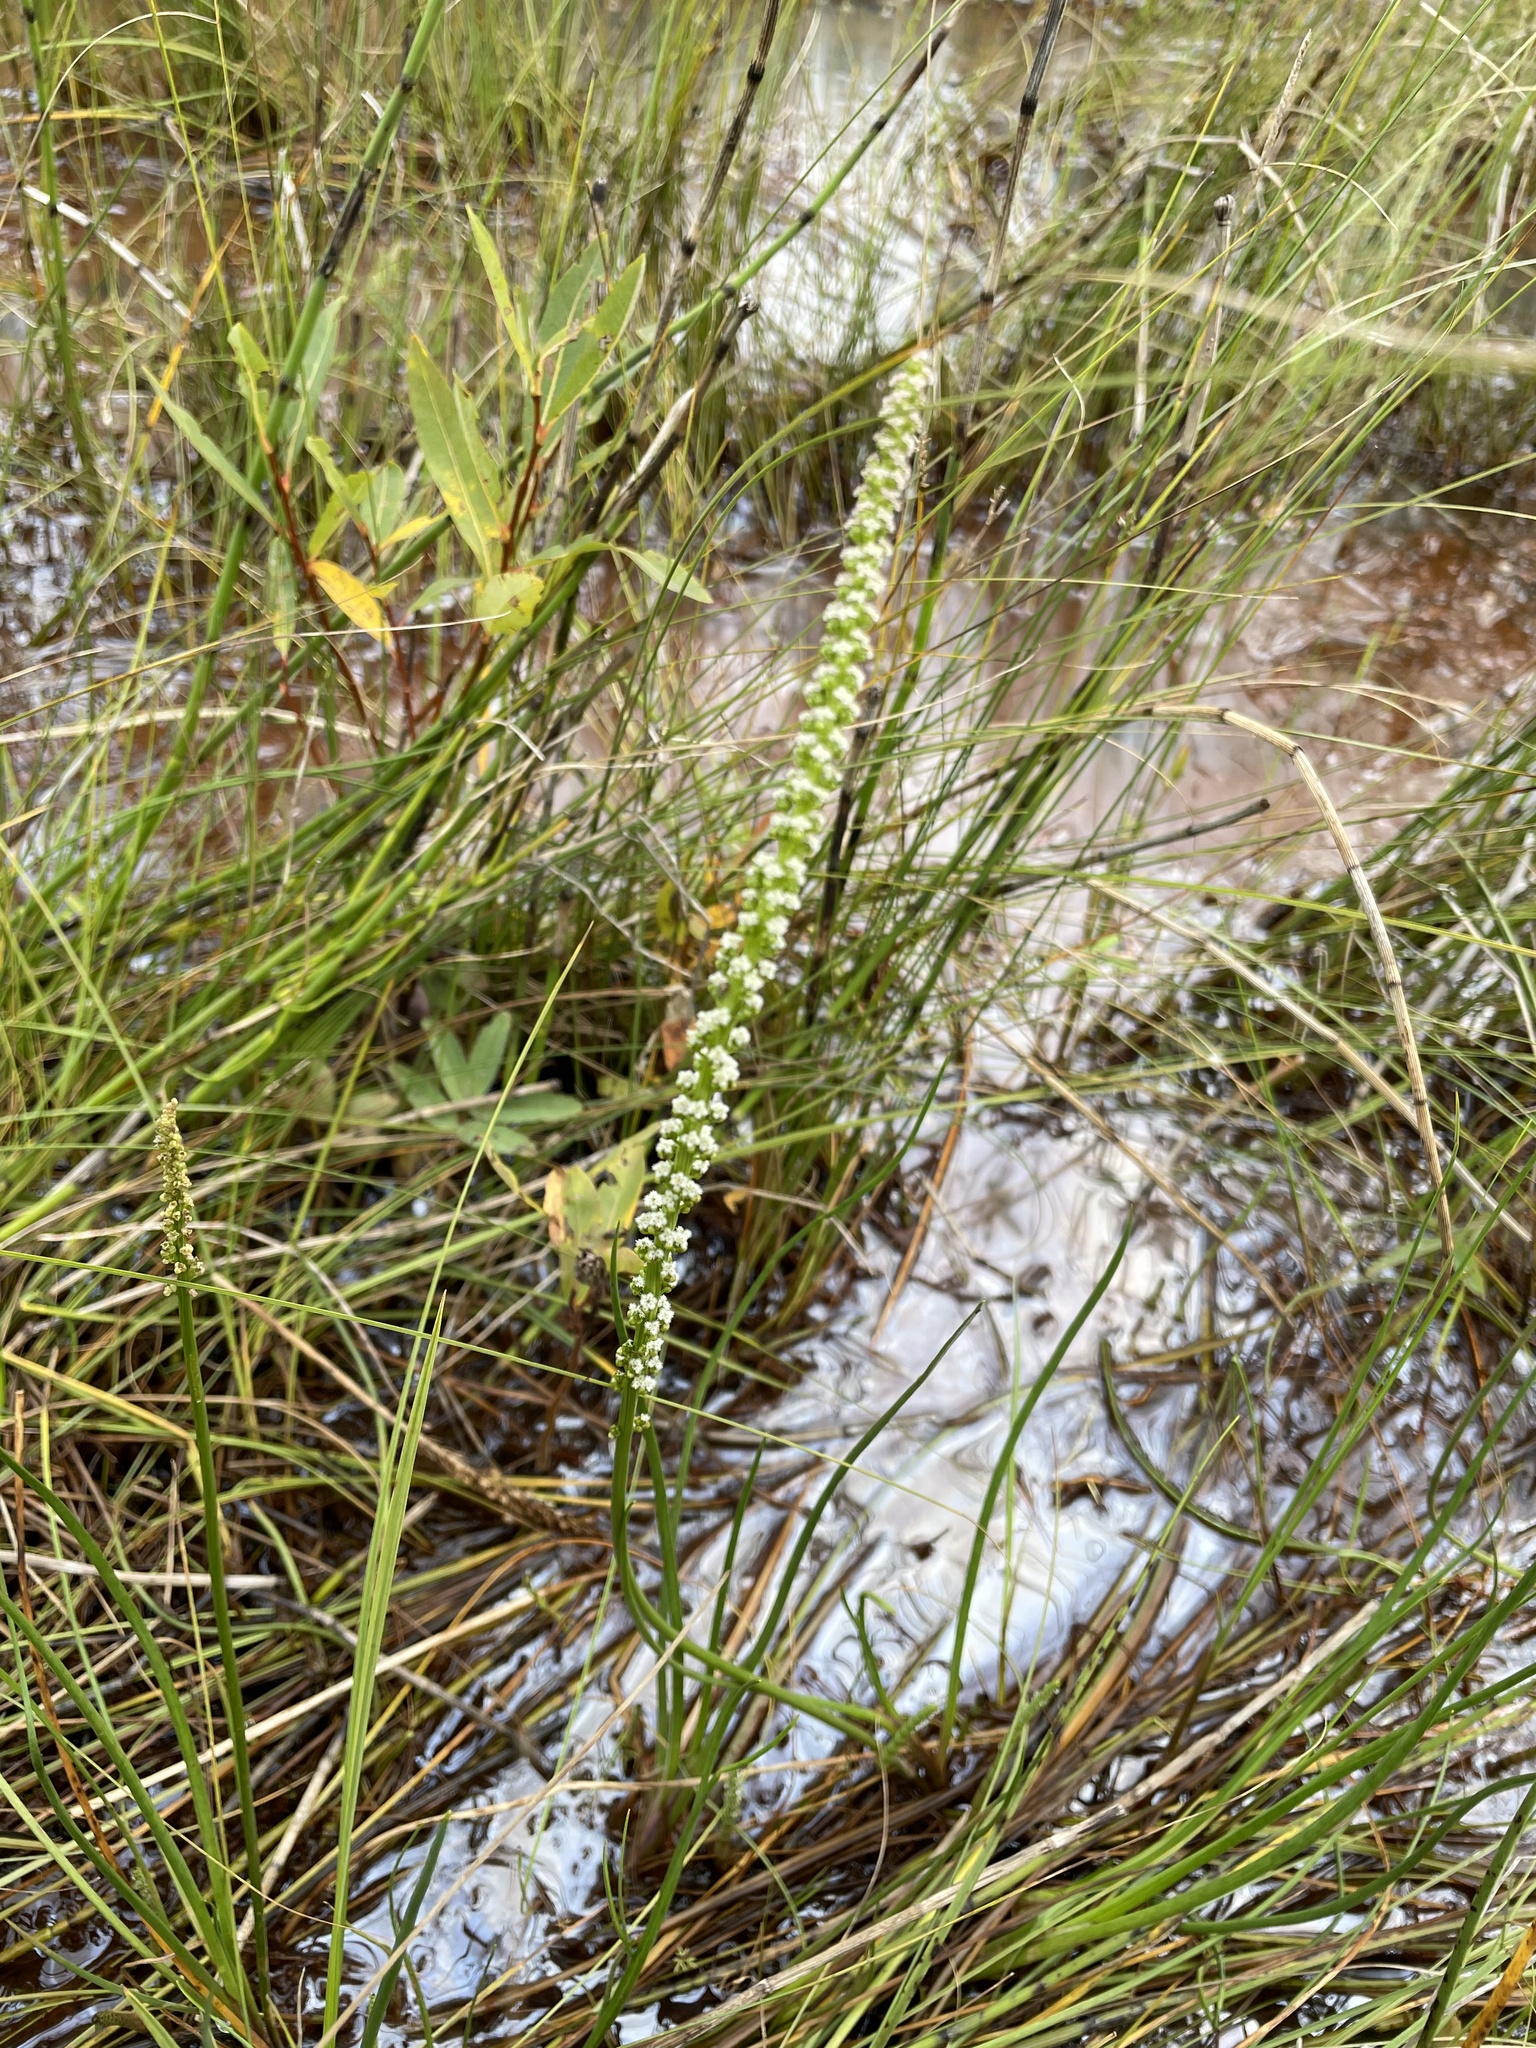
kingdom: Plantae
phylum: Tracheophyta
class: Liliopsida
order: Alismatales
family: Juncaginaceae
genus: Triglochin
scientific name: Triglochin maritima
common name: Sea arrowgrass
